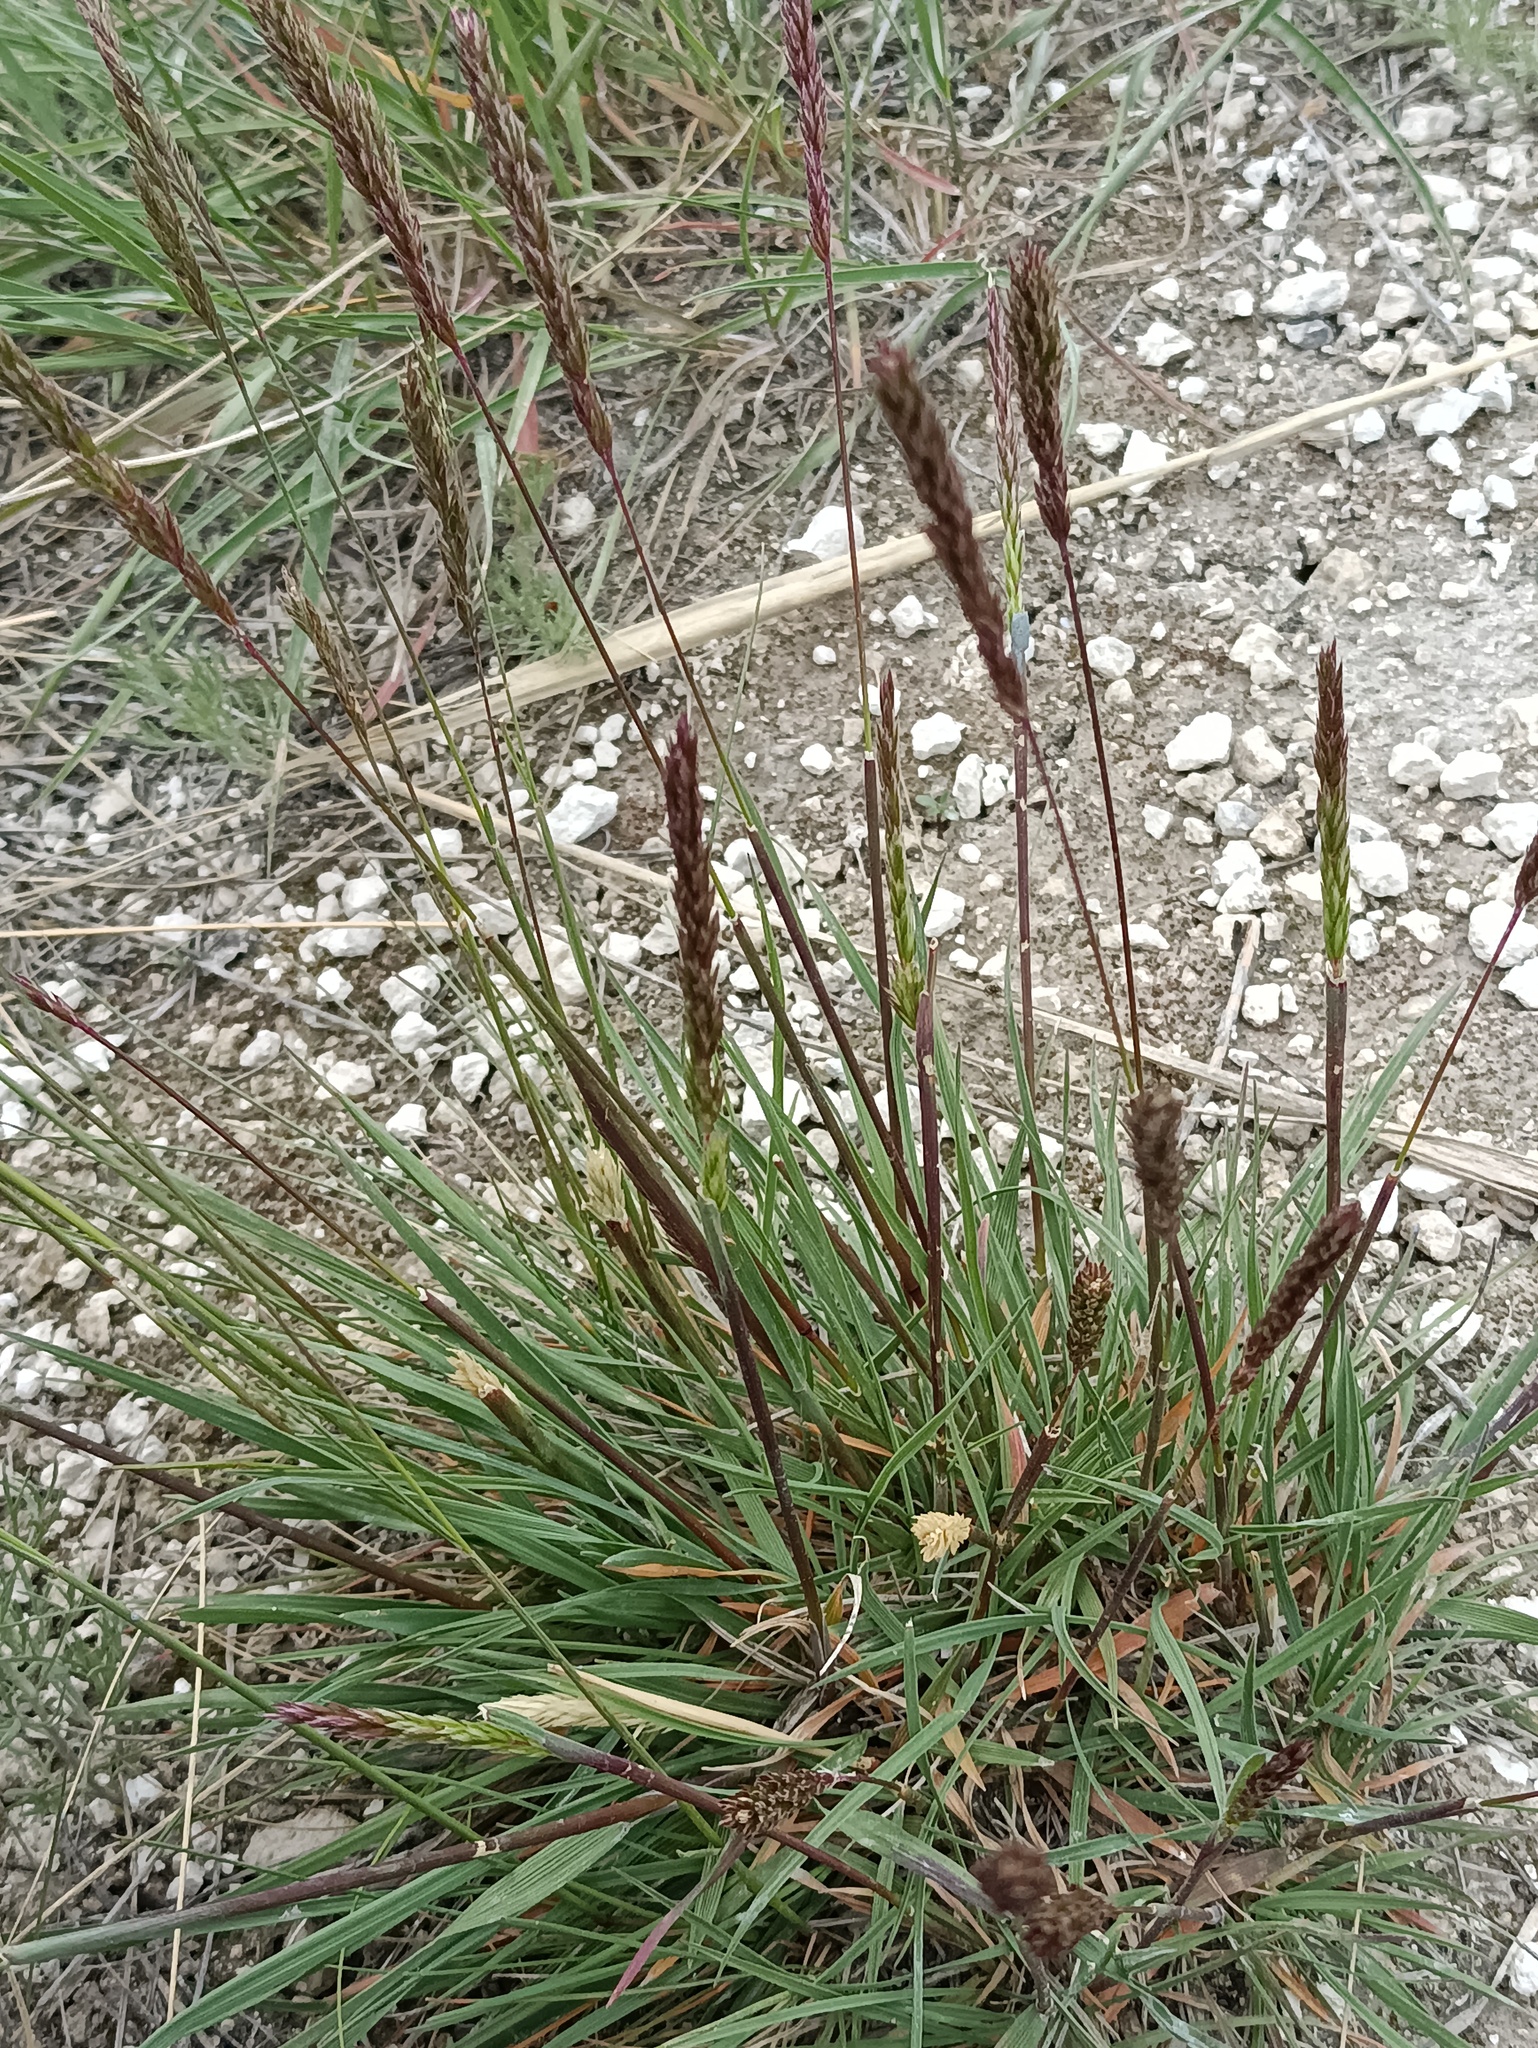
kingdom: Plantae
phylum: Tracheophyta
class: Liliopsida
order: Poales
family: Poaceae
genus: Koeleria
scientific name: Koeleria macrantha
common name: Crested hair-grass
